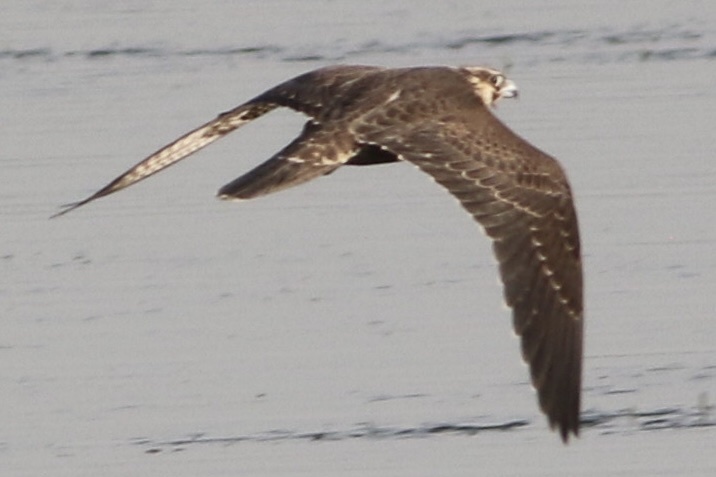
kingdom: Animalia
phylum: Chordata
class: Aves
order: Falconiformes
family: Falconidae
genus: Falco
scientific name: Falco peregrinus
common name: Peregrine falcon
